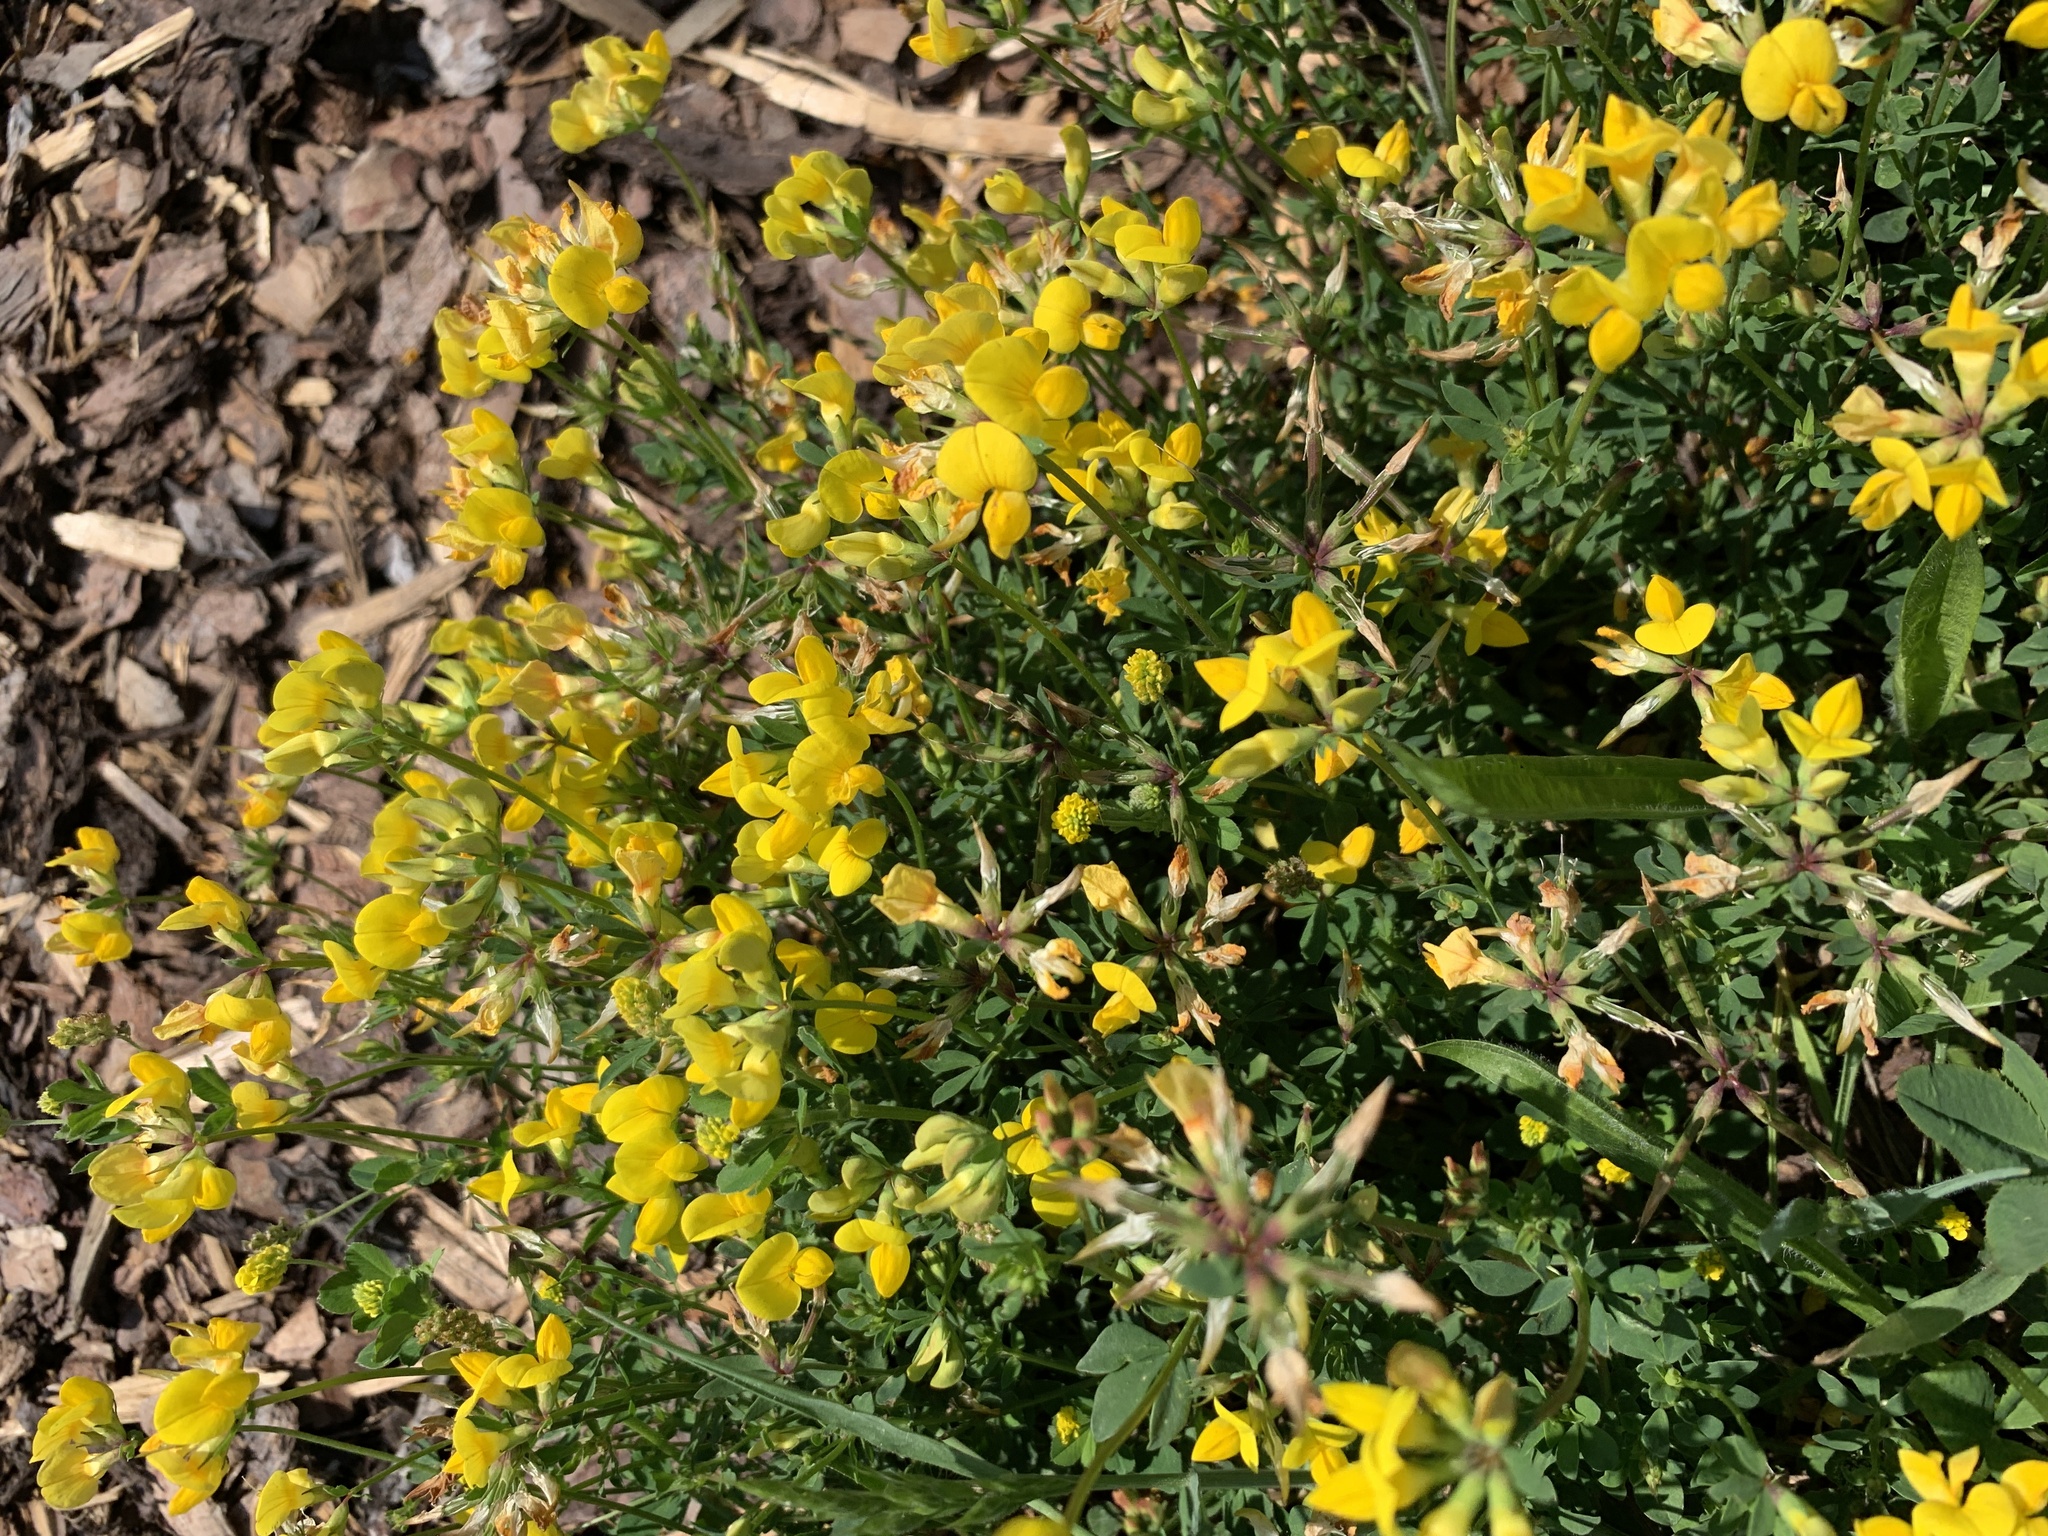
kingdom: Plantae
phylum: Tracheophyta
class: Magnoliopsida
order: Fabales
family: Fabaceae
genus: Lotus
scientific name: Lotus corniculatus
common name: Common bird's-foot-trefoil
